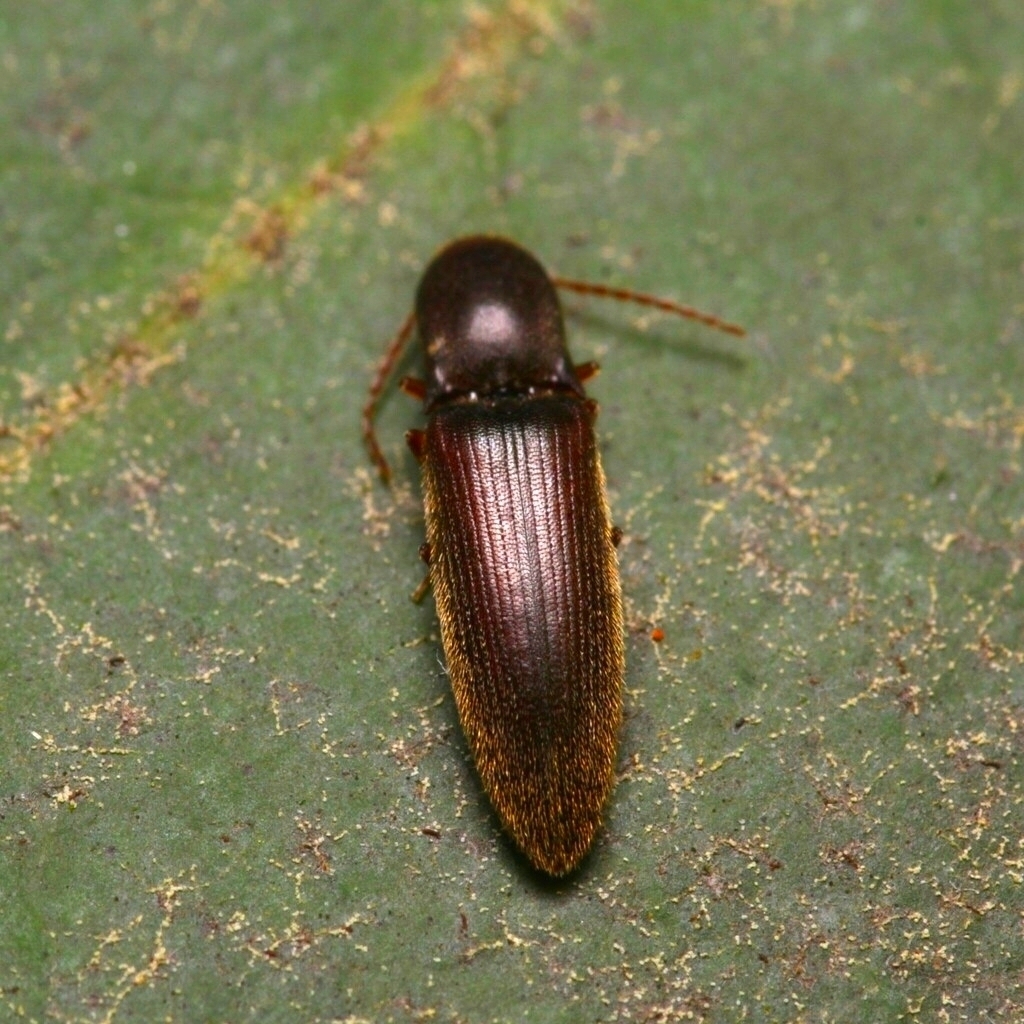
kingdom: Animalia
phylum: Arthropoda
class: Insecta
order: Coleoptera
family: Elateridae
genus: Agriotes
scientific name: Agriotes oblongicollis
